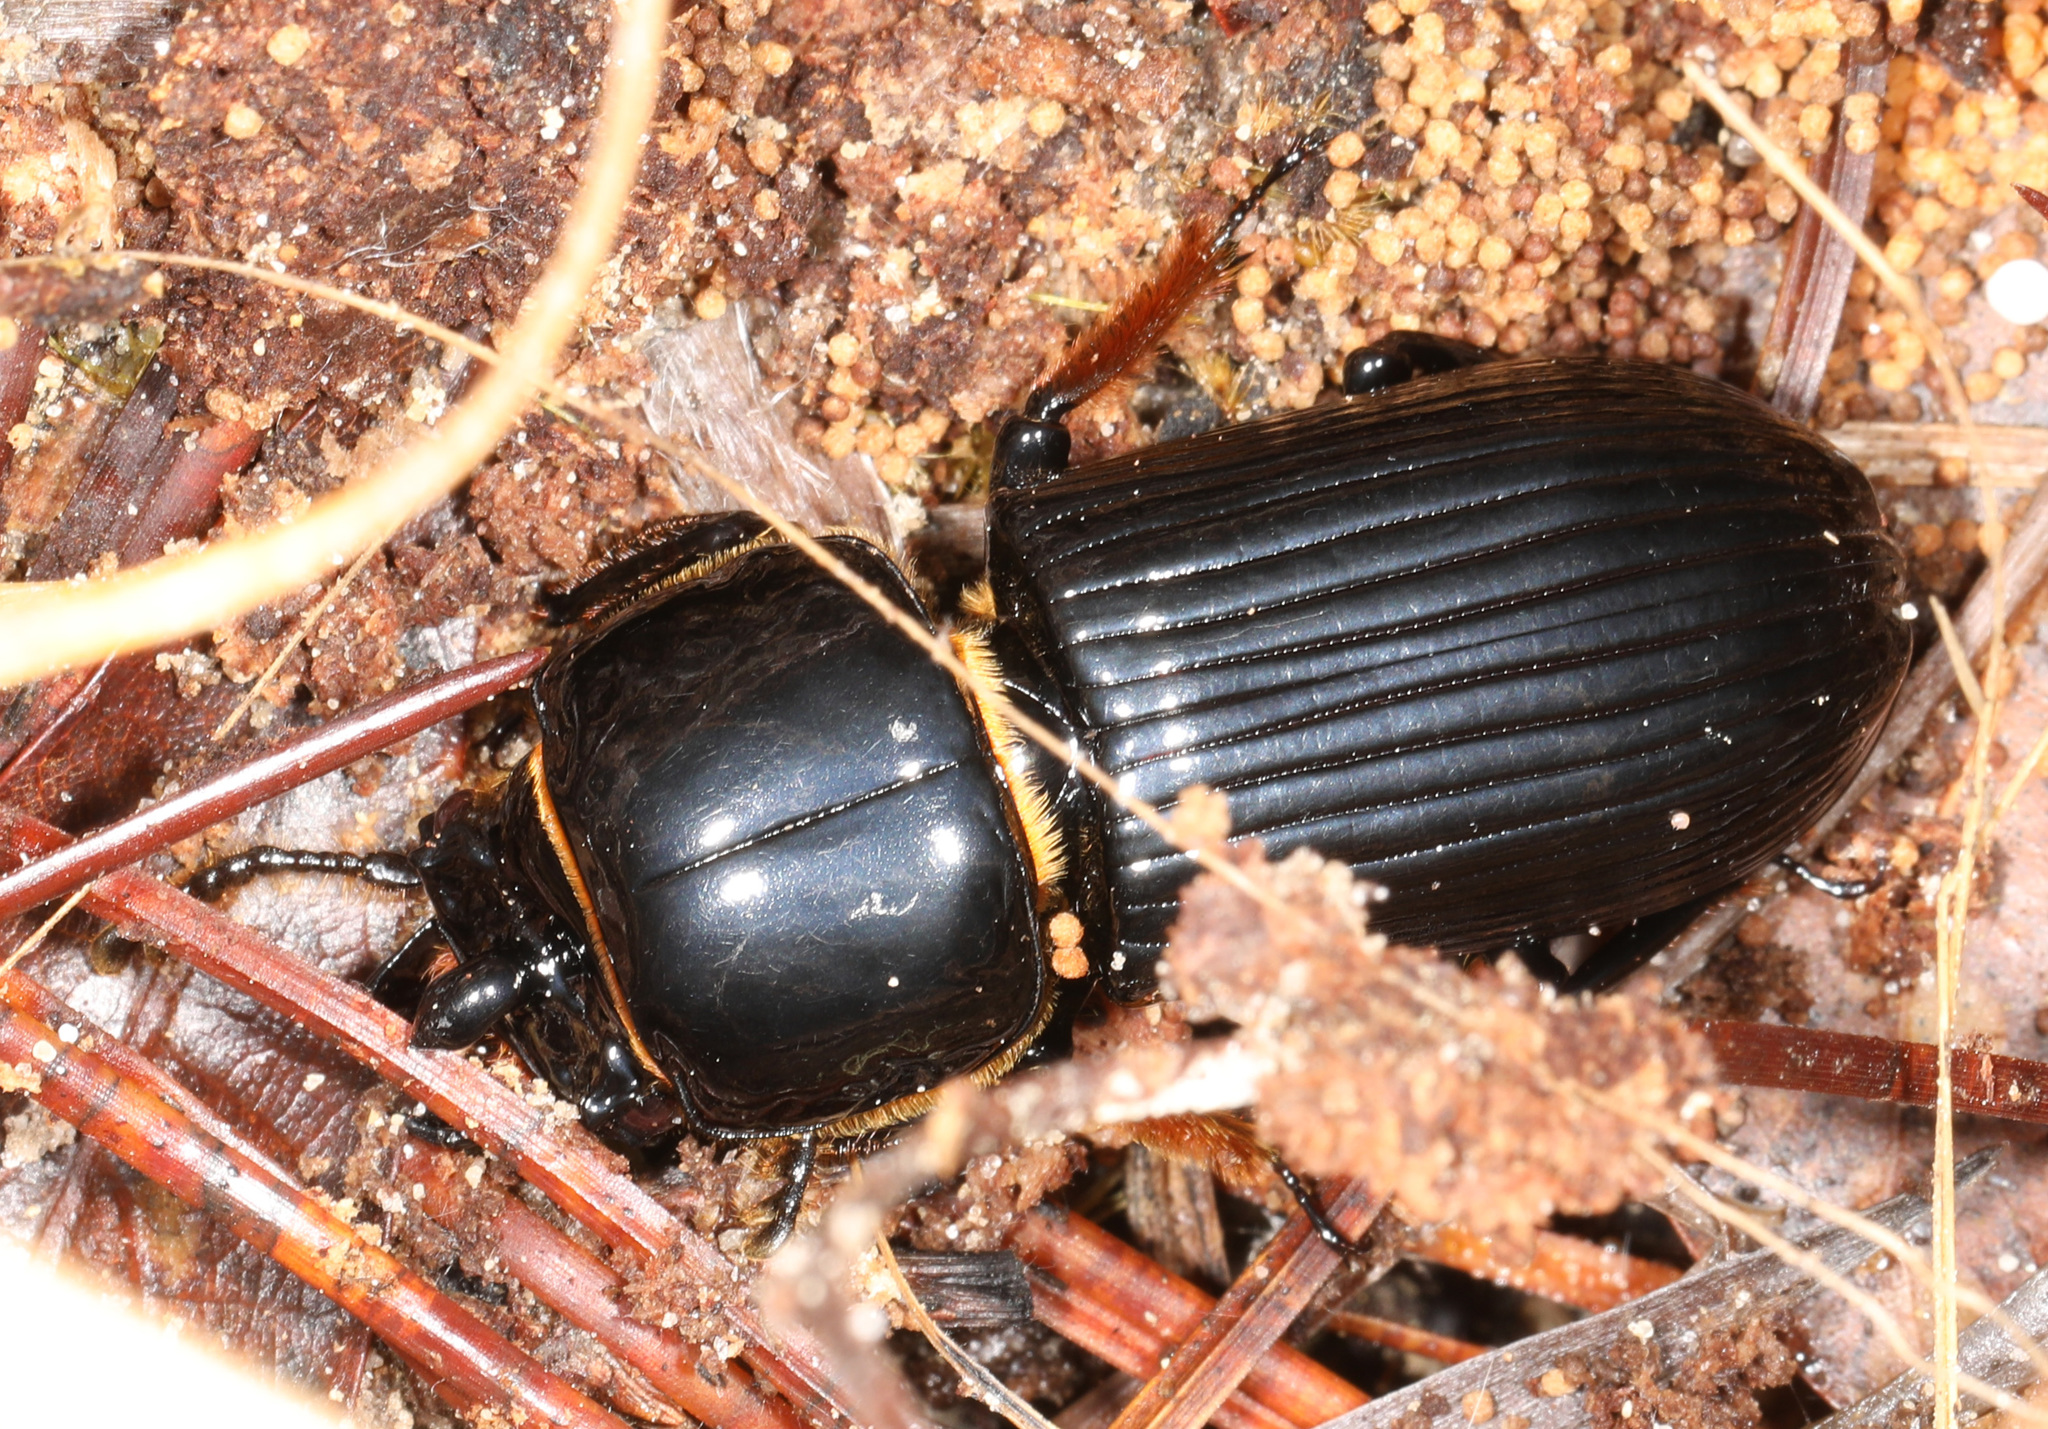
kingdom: Animalia
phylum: Arthropoda
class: Insecta
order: Coleoptera
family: Passalidae
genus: Odontotaenius
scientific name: Odontotaenius disjunctus
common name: Patent leather beetle
